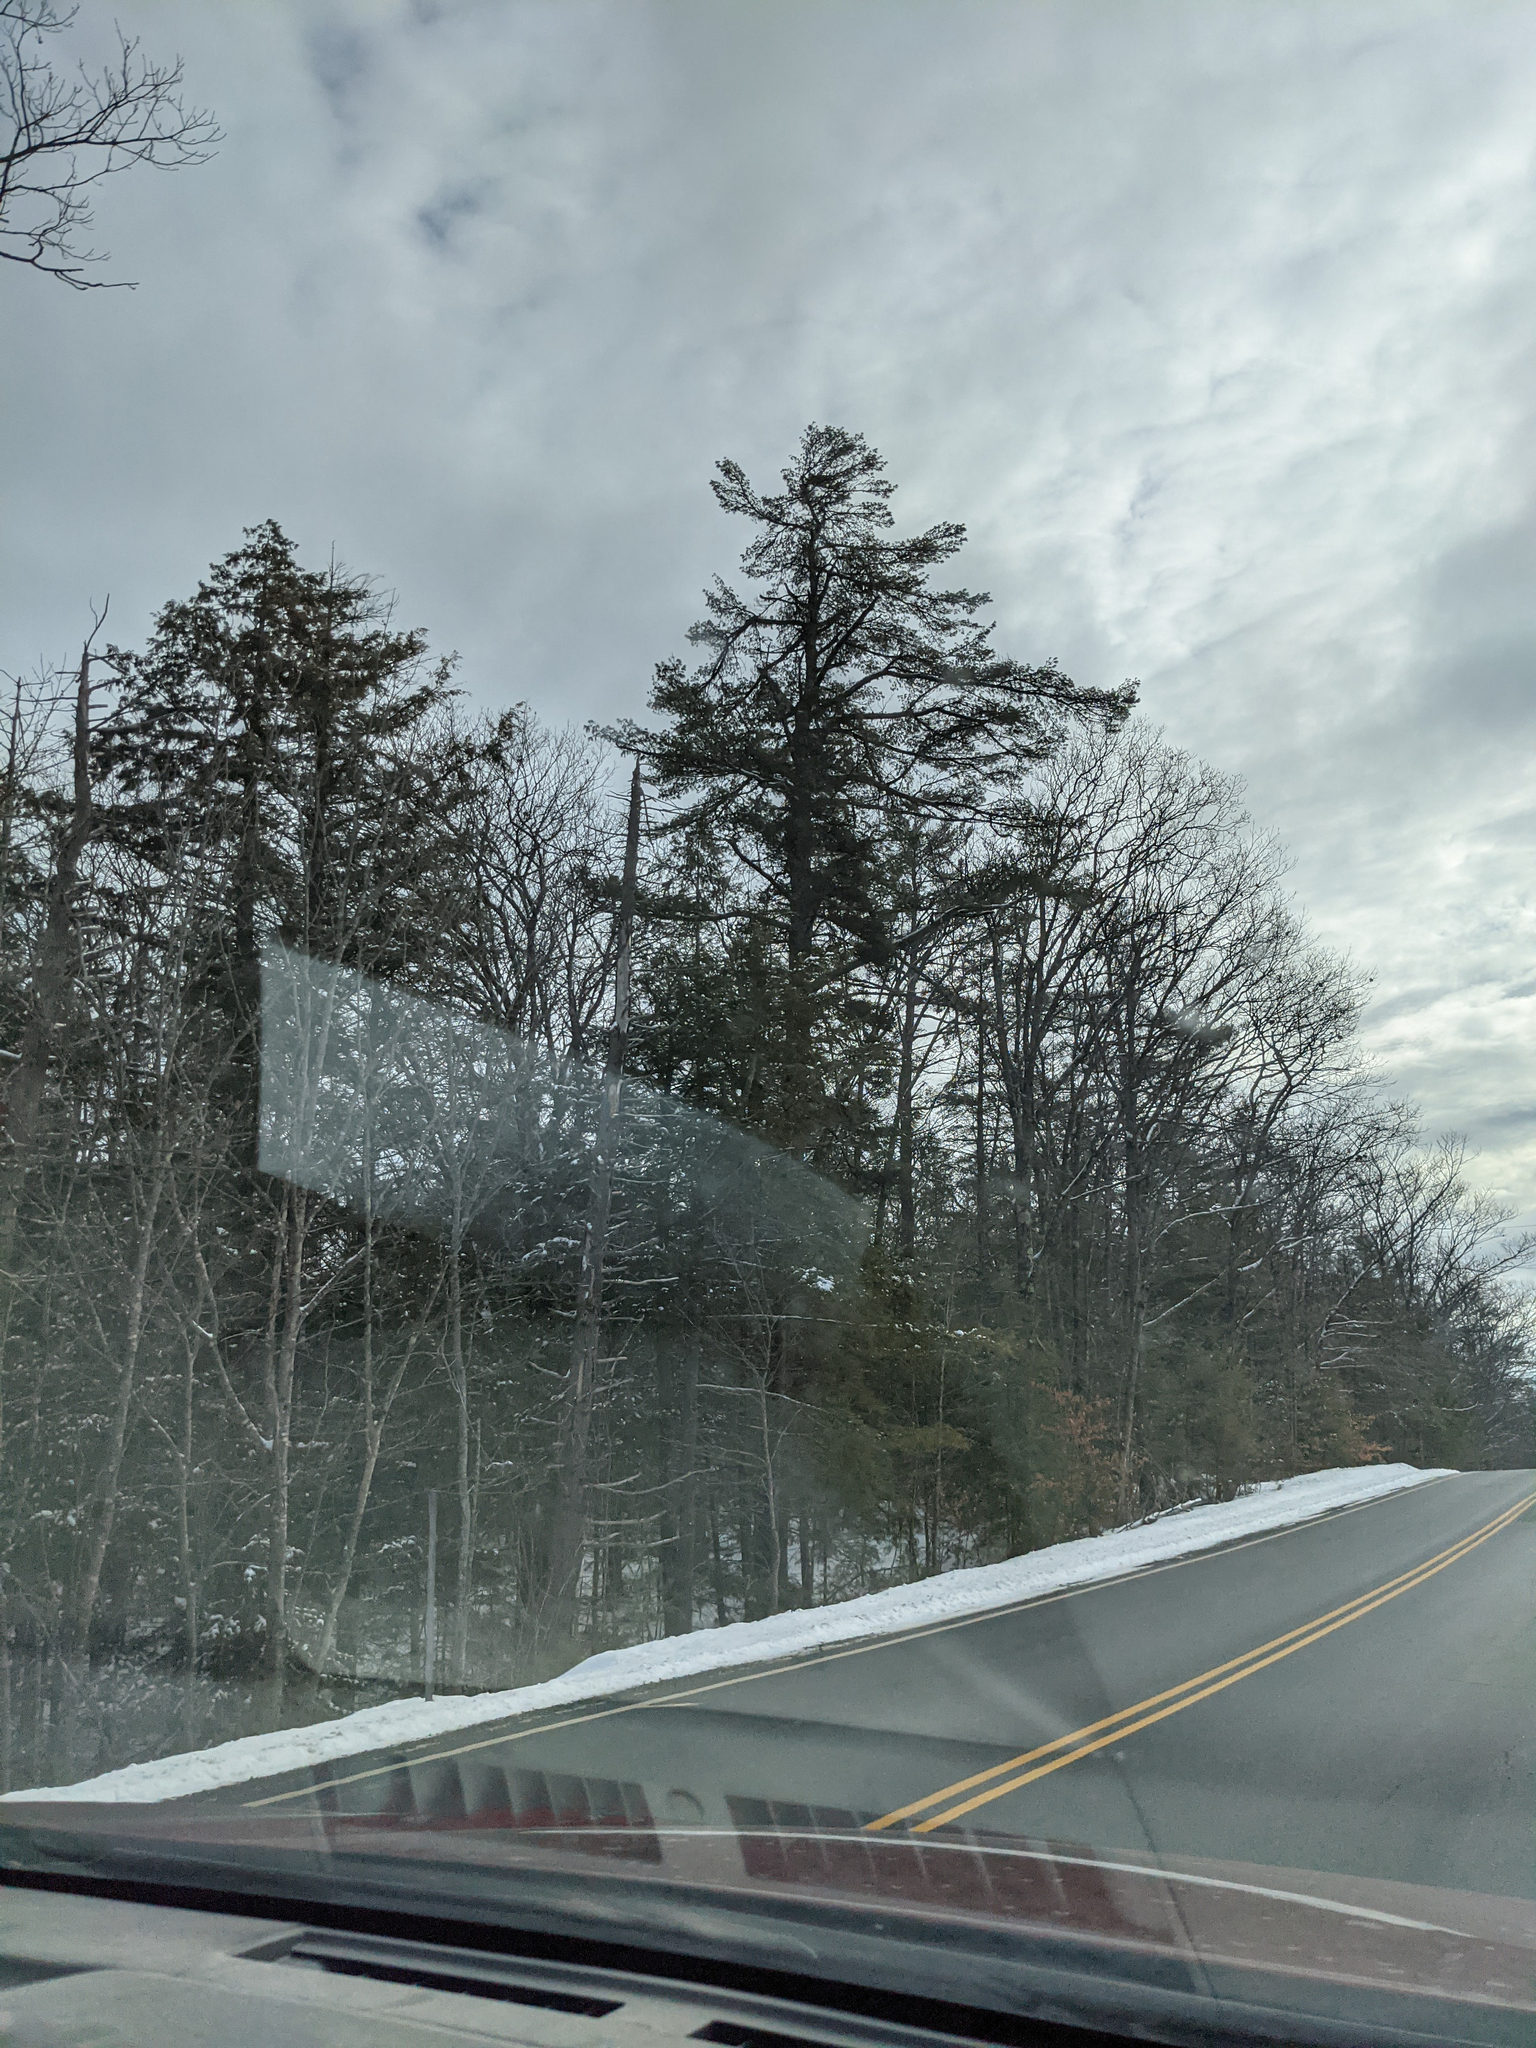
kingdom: Plantae
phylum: Tracheophyta
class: Pinopsida
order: Pinales
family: Pinaceae
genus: Pinus
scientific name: Pinus strobus
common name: Weymouth pine
